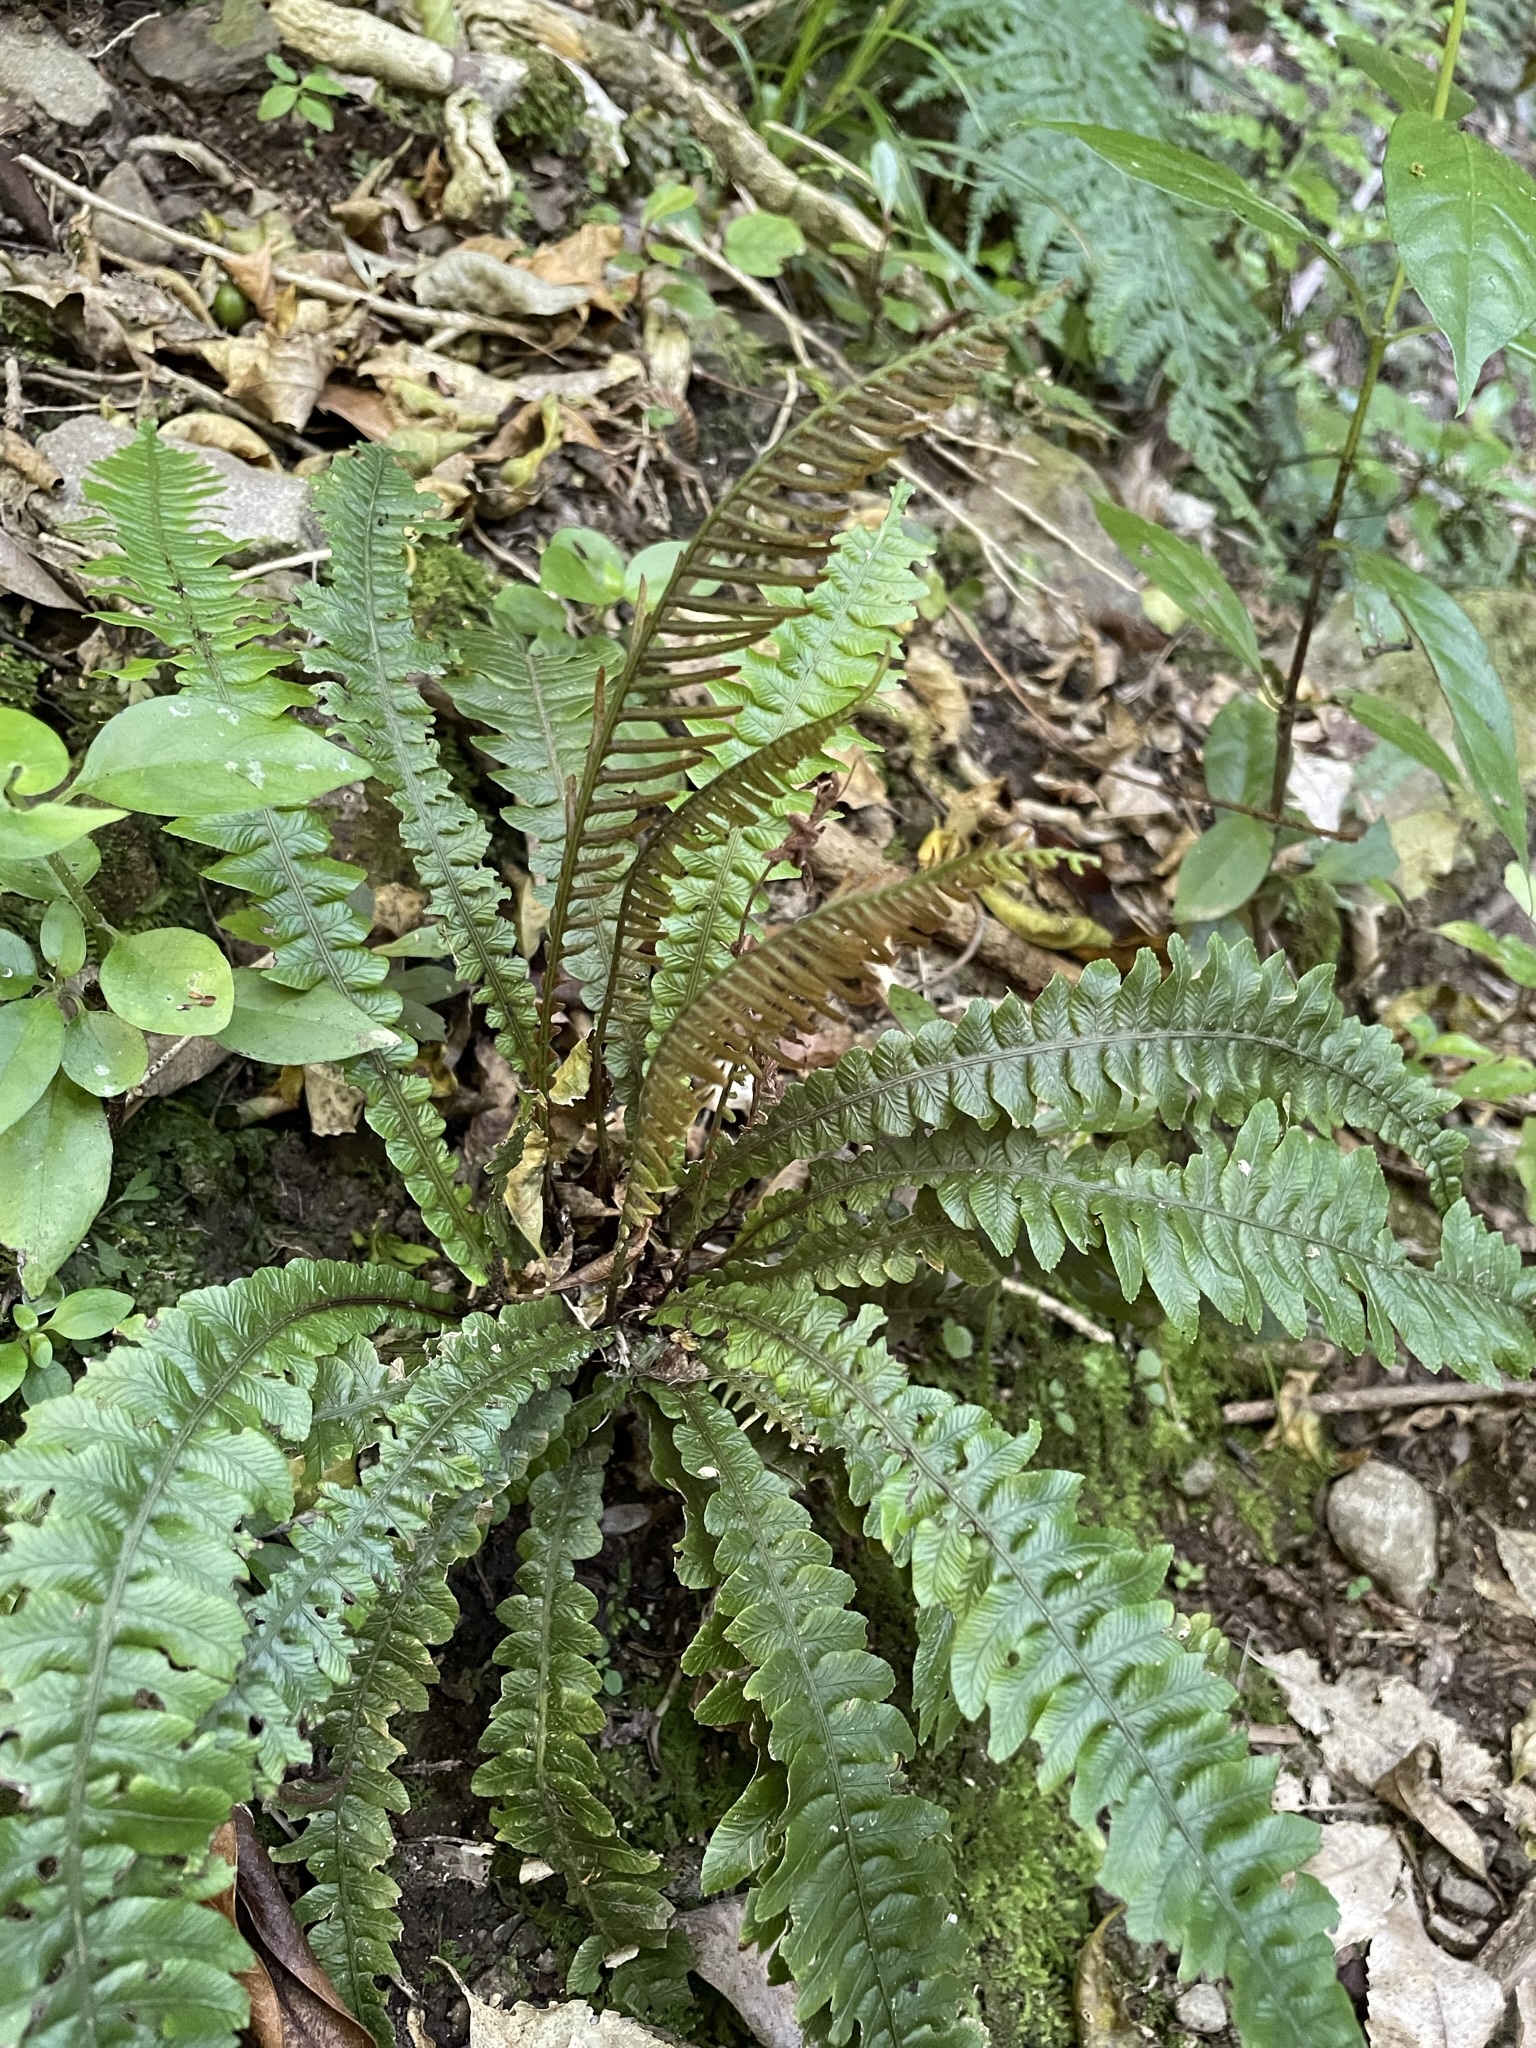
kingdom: Plantae
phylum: Tracheophyta
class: Polypodiopsida
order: Polypodiales
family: Blechnaceae
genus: Austroblechnum
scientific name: Austroblechnum lanceolatum
